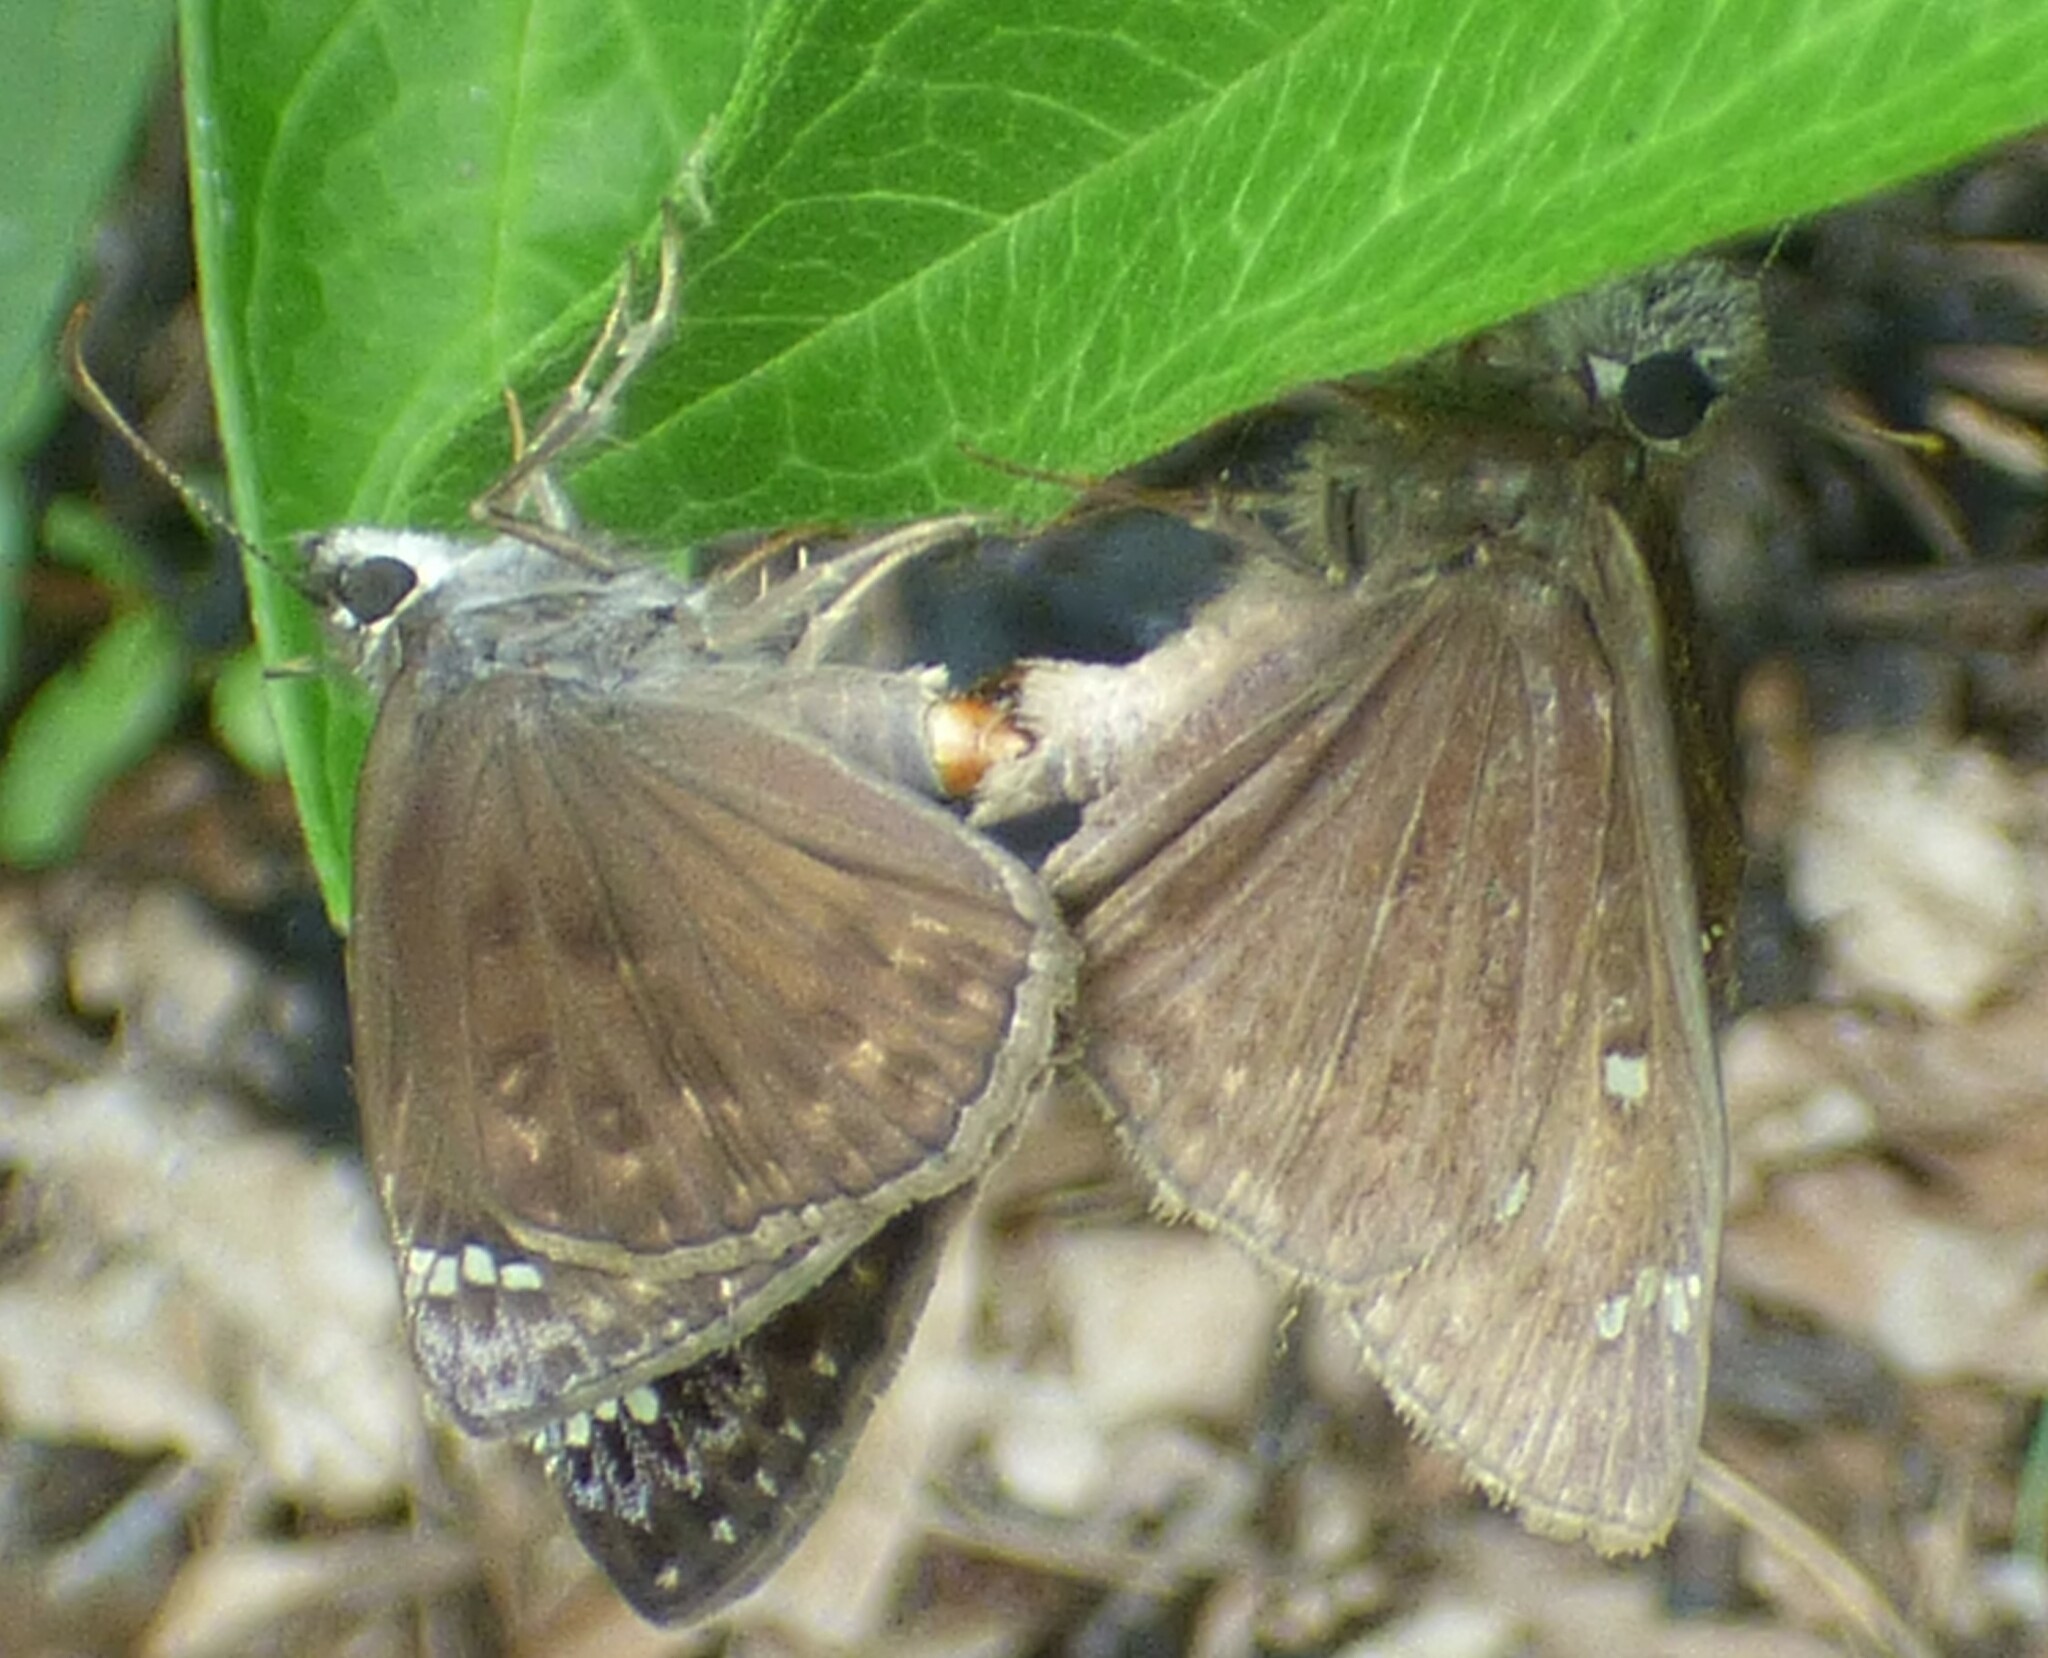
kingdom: Animalia
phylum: Arthropoda
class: Insecta
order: Lepidoptera
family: Hesperiidae
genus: Erynnis
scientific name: Erynnis horatius
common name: Horace's duskywing
